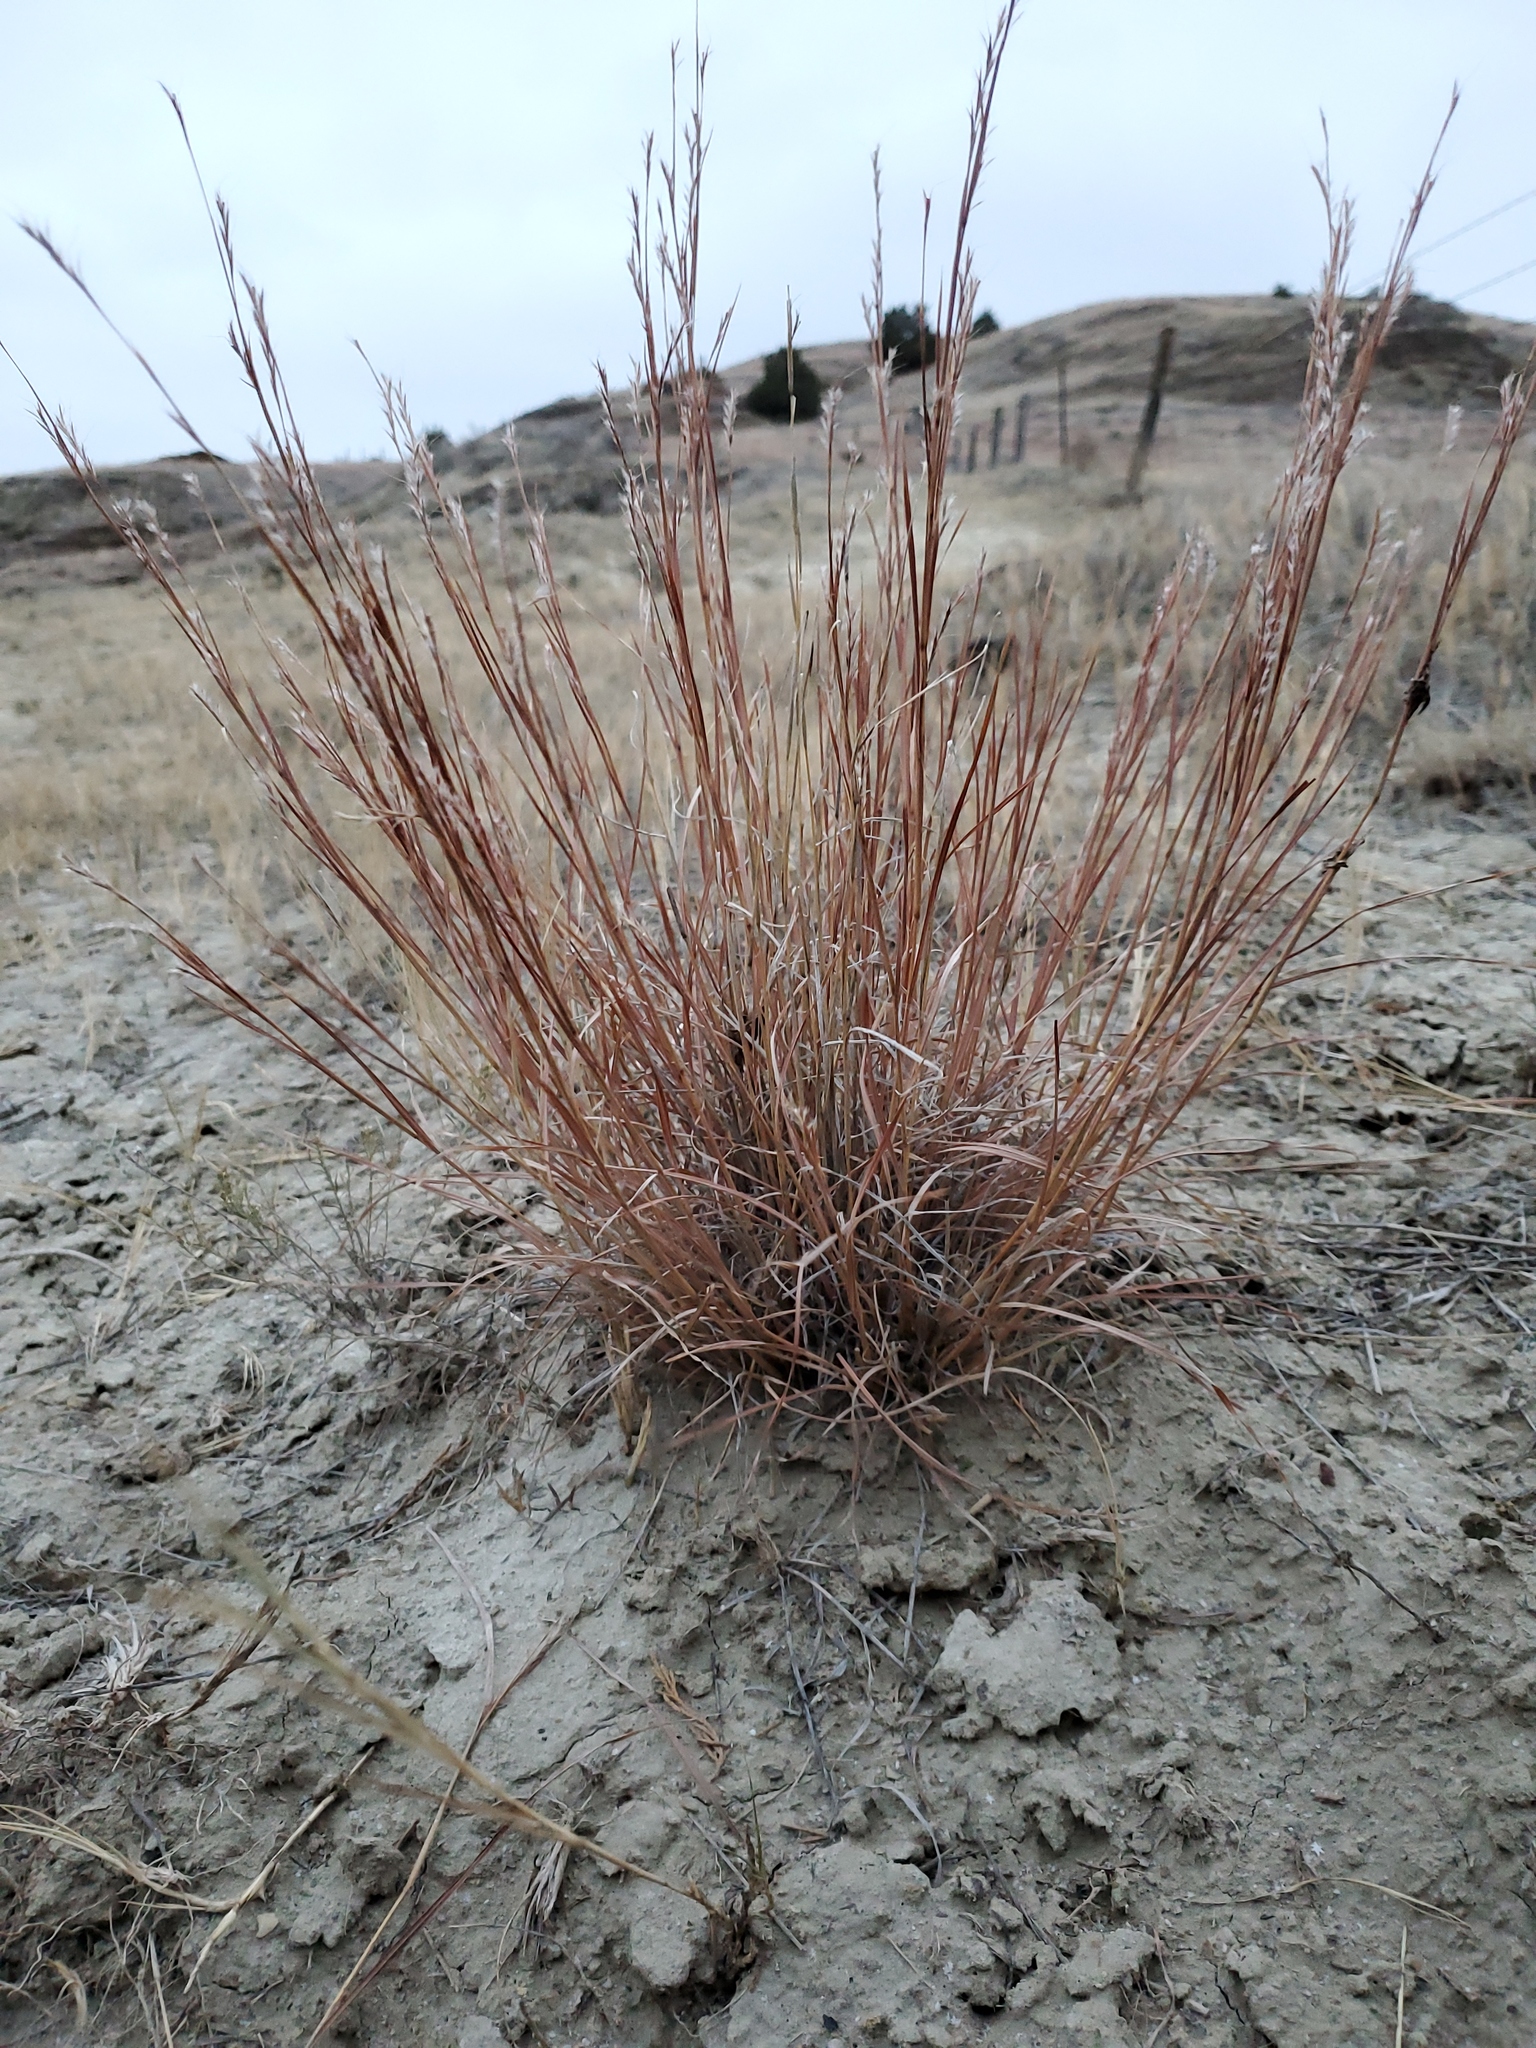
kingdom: Plantae
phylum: Tracheophyta
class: Liliopsida
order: Poales
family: Poaceae
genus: Schizachyrium
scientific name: Schizachyrium scoparium
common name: Little bluestem
